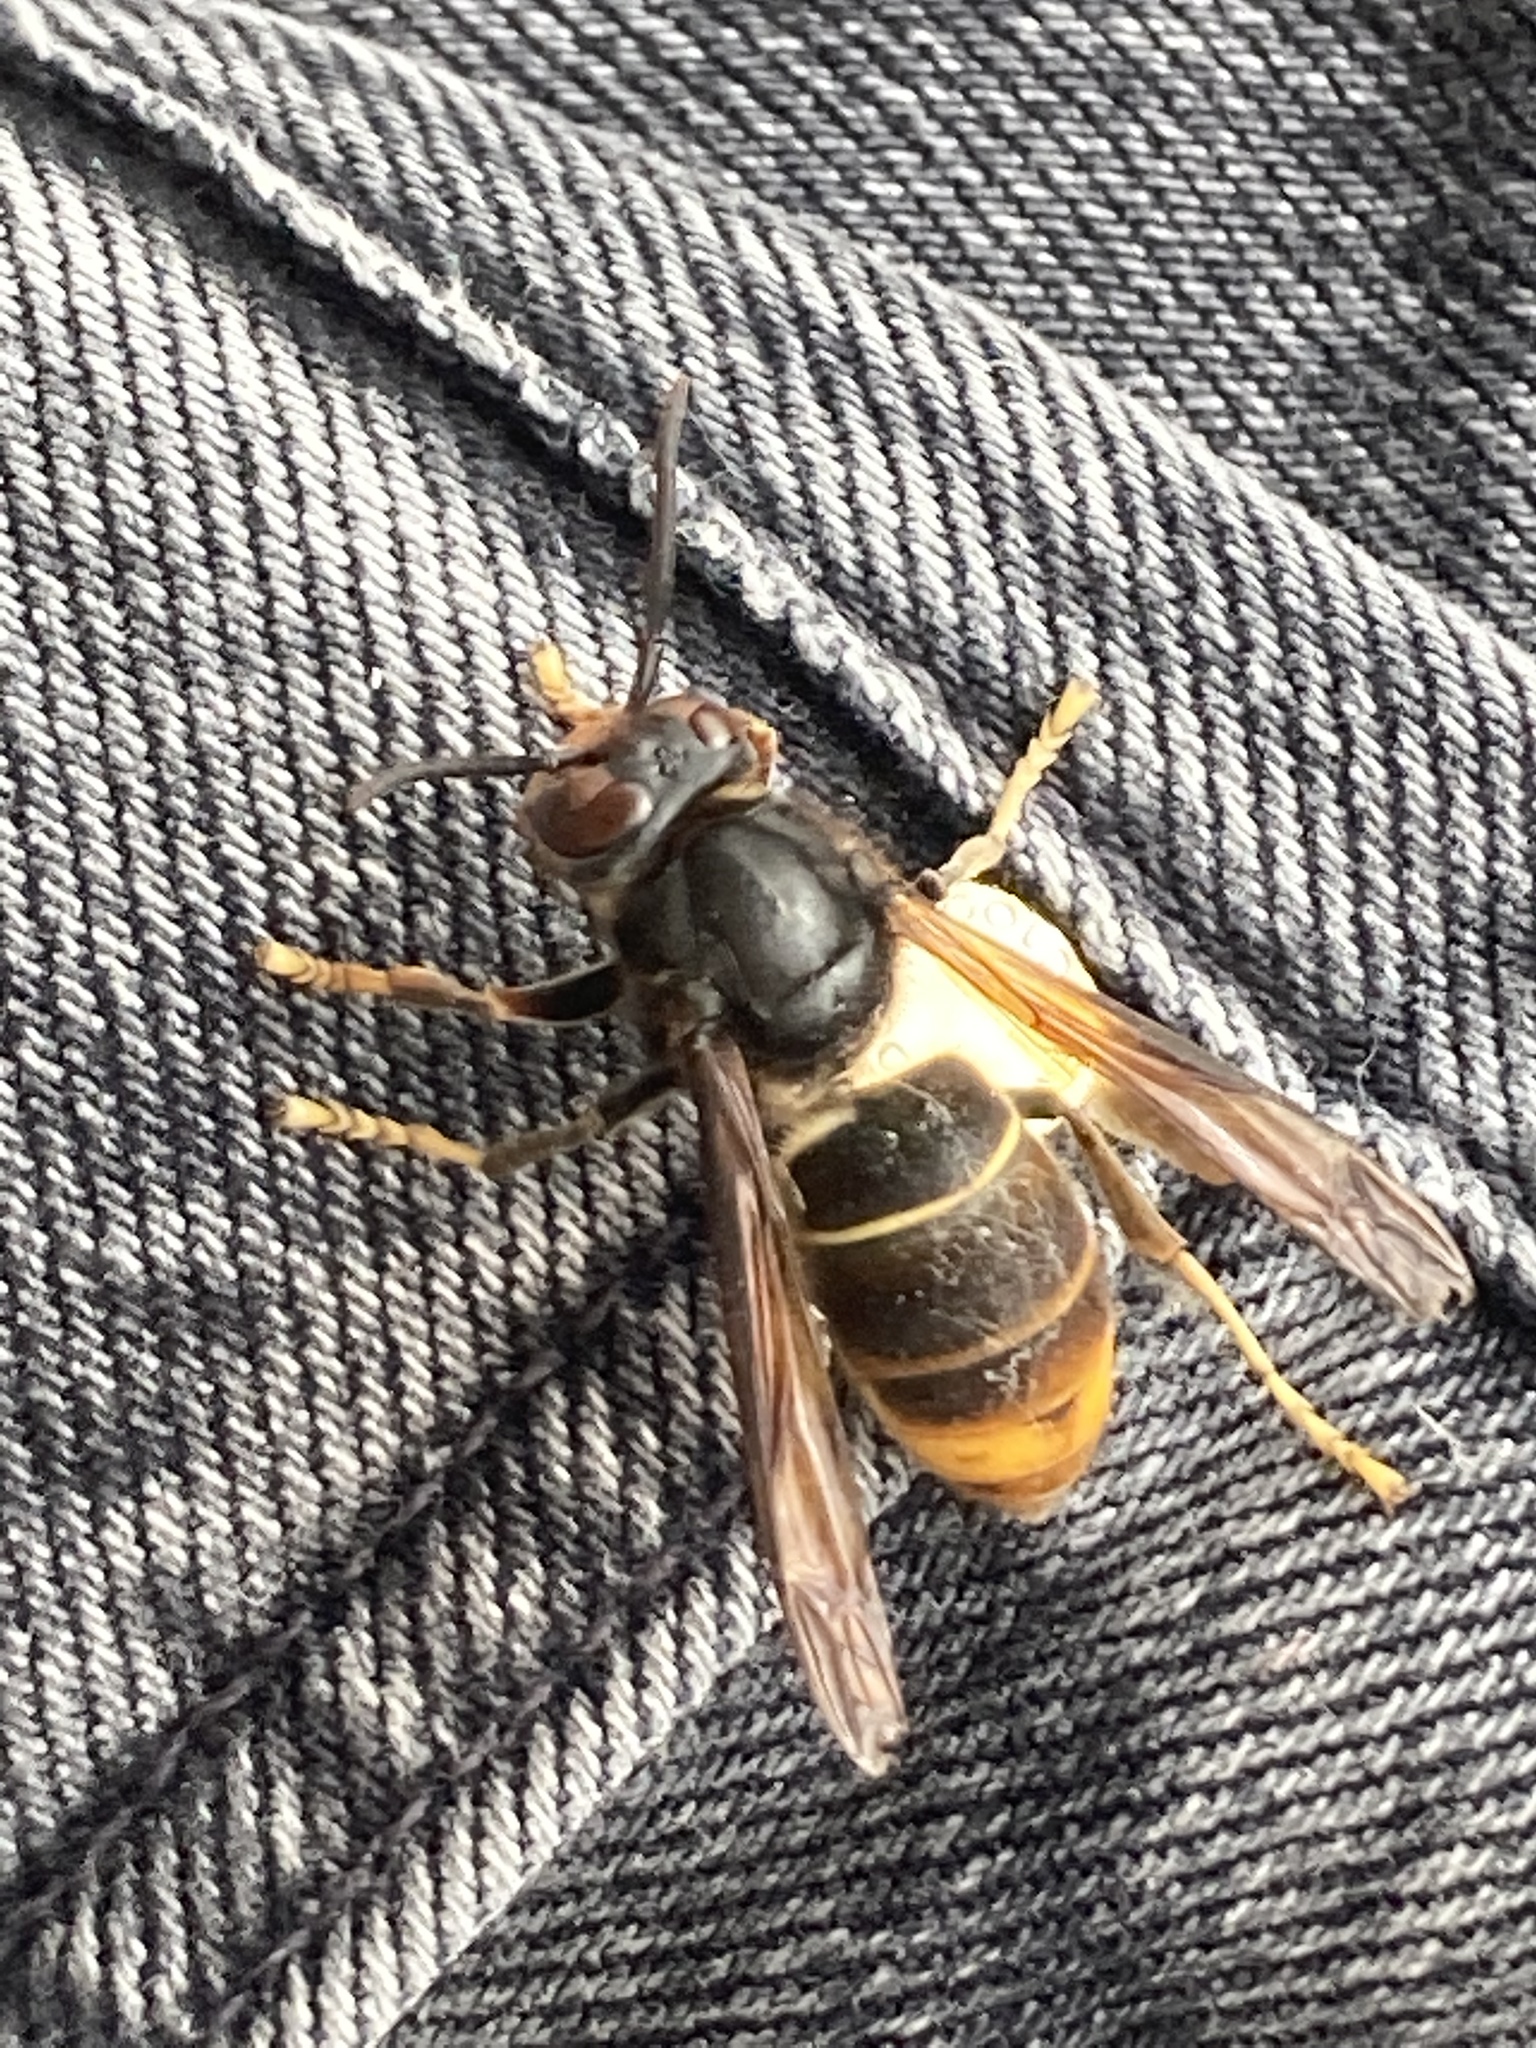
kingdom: Animalia
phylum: Arthropoda
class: Insecta
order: Hymenoptera
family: Vespidae
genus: Vespa
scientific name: Vespa velutina
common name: Asian hornet
